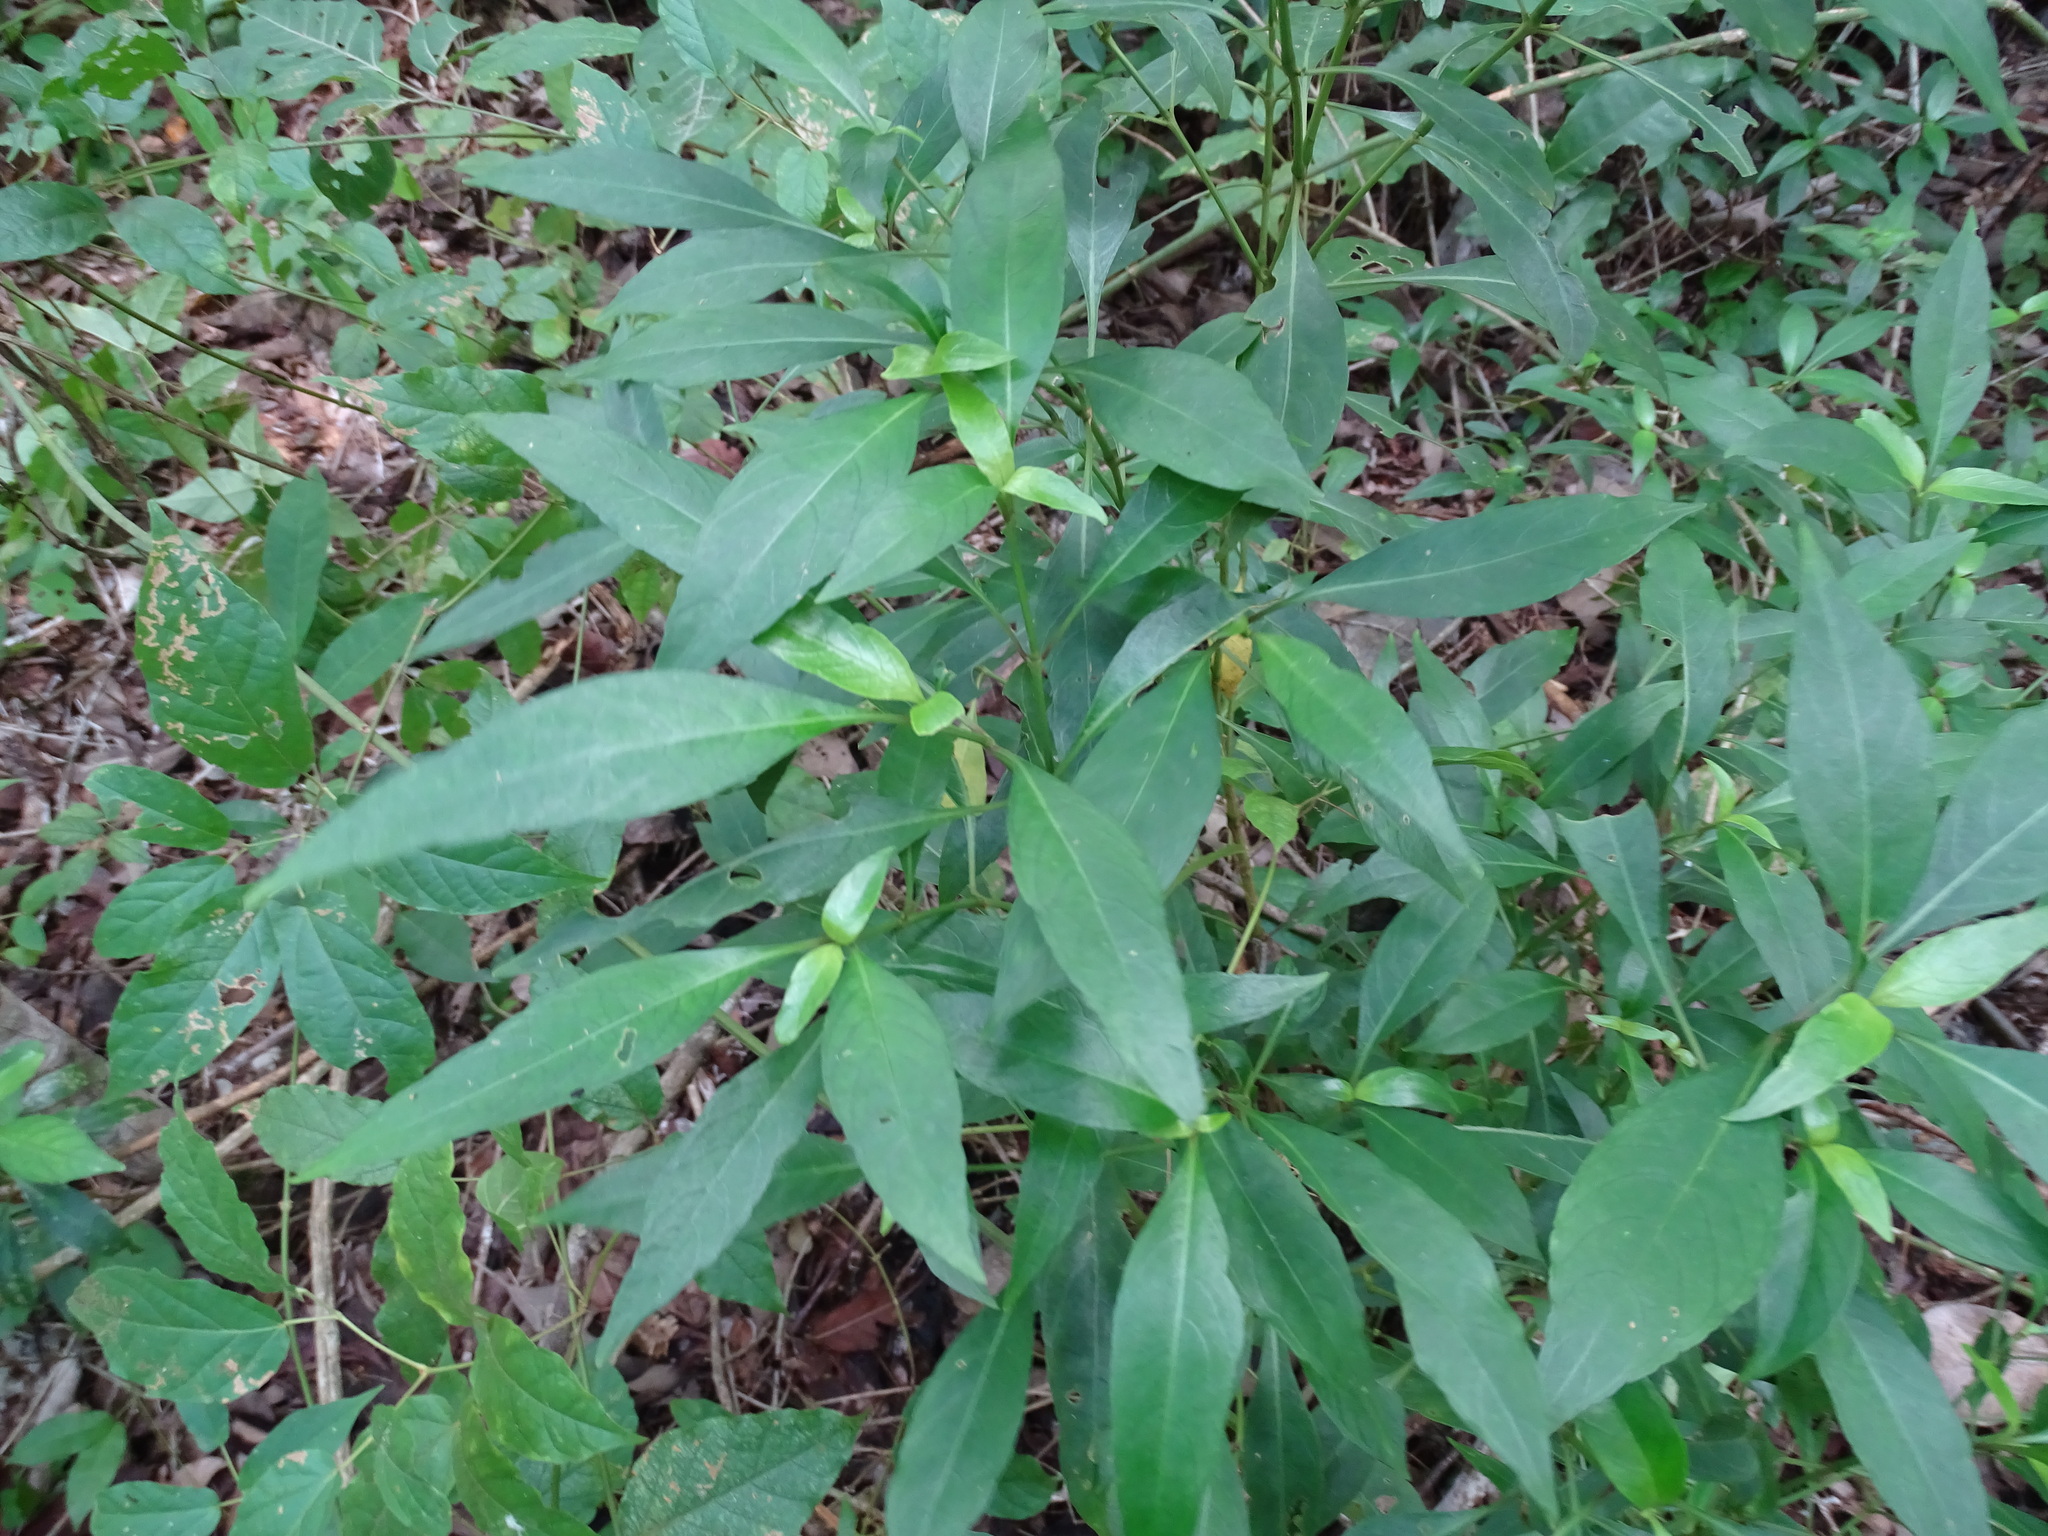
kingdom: Plantae
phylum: Tracheophyta
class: Magnoliopsida
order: Lamiales
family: Acanthaceae
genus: Justicia
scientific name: Justicia campechiana
